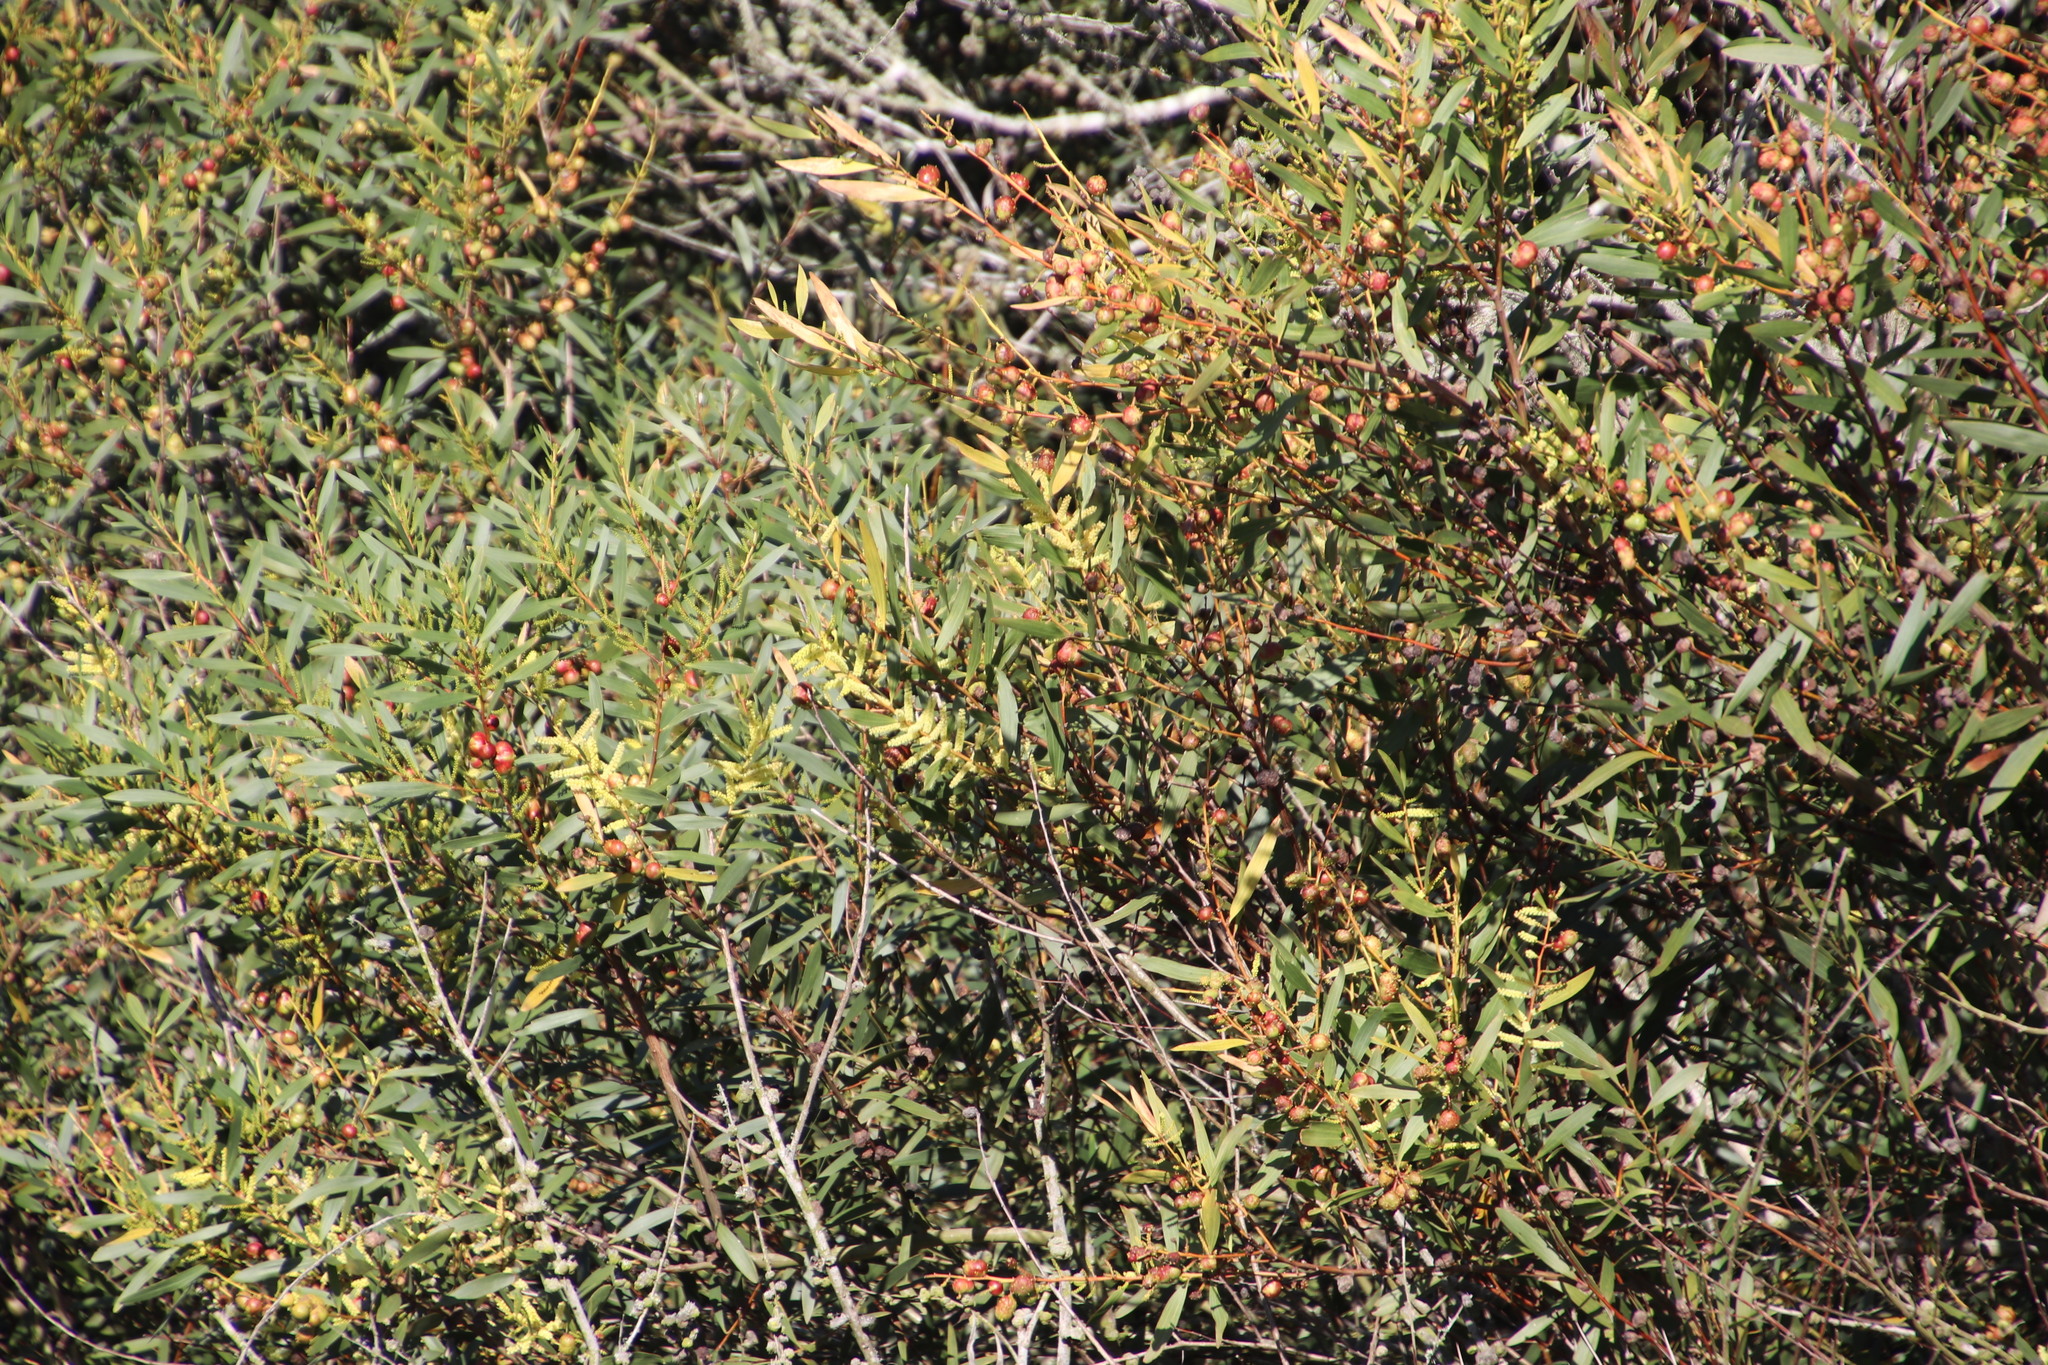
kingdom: Plantae
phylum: Tracheophyta
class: Magnoliopsida
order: Fabales
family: Fabaceae
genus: Acacia
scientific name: Acacia longifolia
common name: Sydney golden wattle
